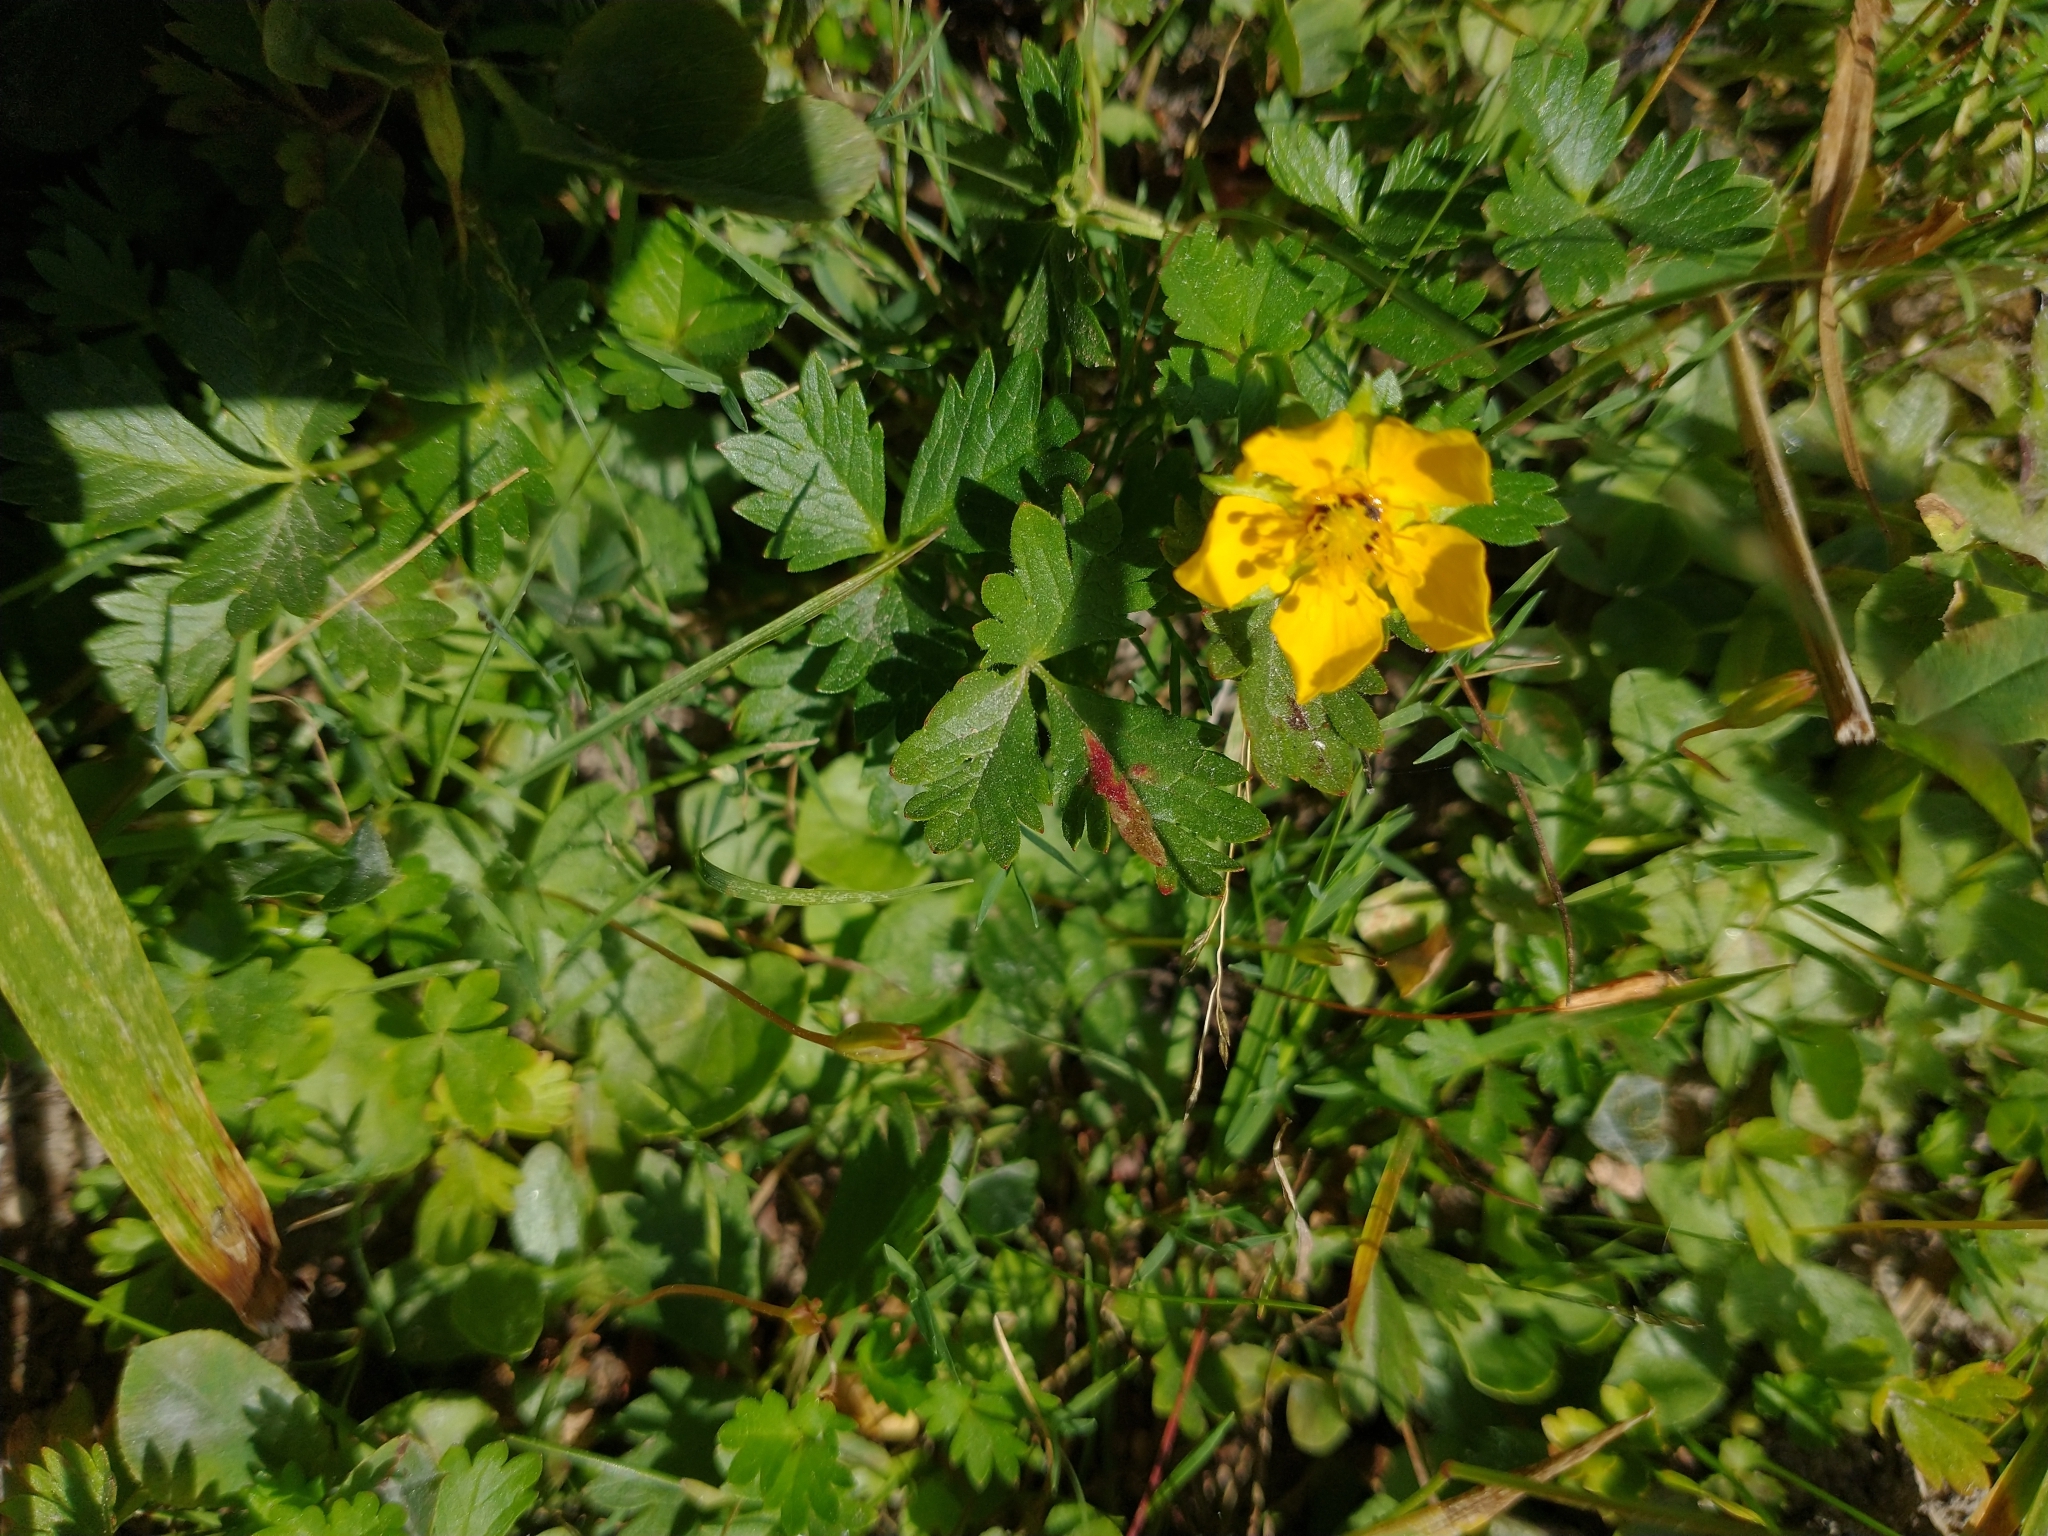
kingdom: Plantae
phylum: Tracheophyta
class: Magnoliopsida
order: Rosales
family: Rosaceae
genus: Potentilla
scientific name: Potentilla flabellifolia
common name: Mount rainier cinquefoil
